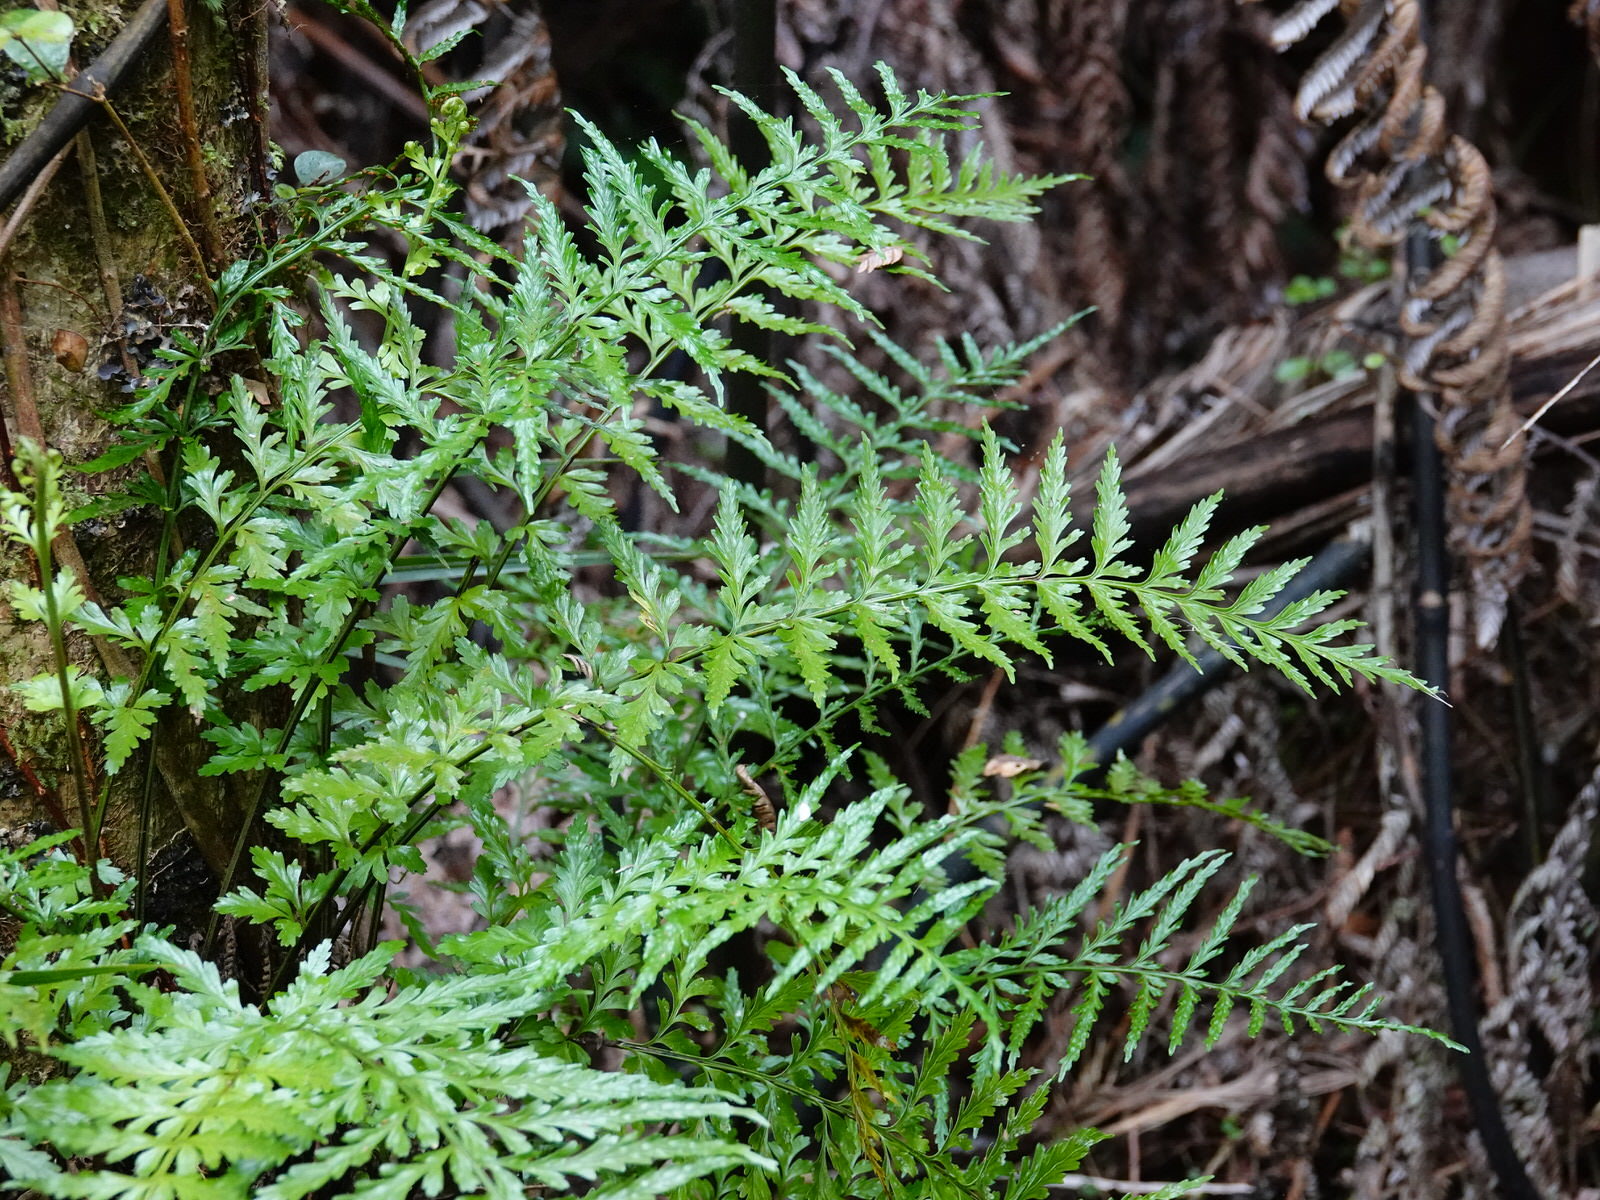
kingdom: Plantae
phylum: Tracheophyta
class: Polypodiopsida
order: Polypodiales
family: Aspleniaceae
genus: Asplenium
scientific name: Asplenium lamprophyllum
